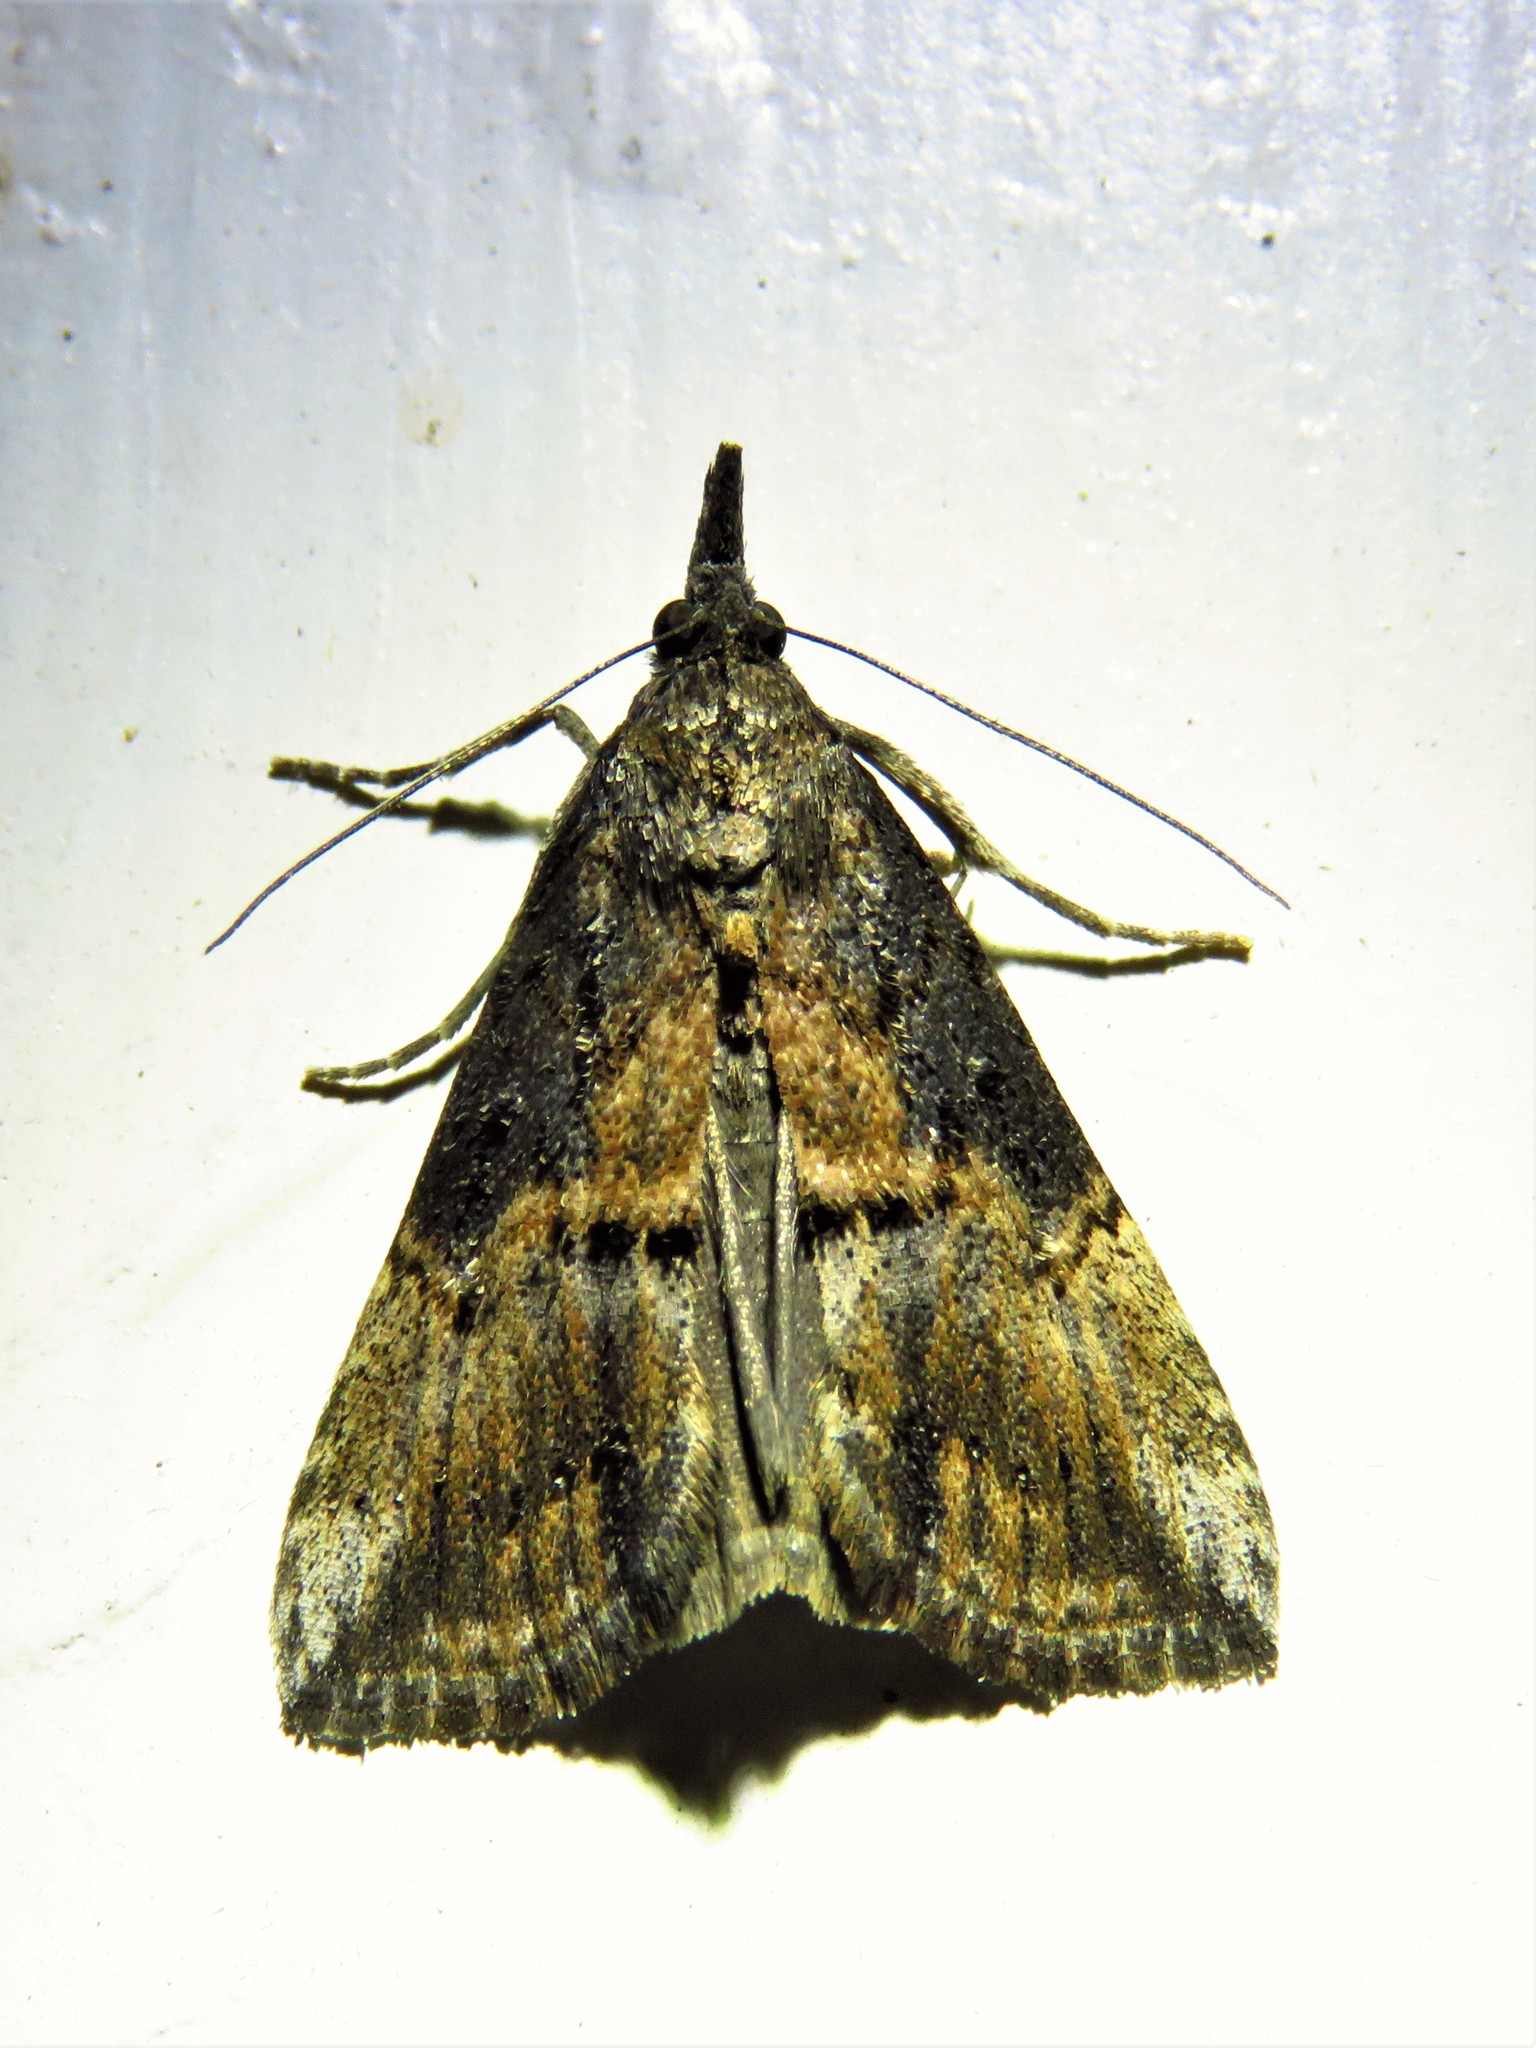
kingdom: Animalia
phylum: Arthropoda
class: Insecta
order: Lepidoptera
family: Erebidae
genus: Hypena
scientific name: Hypena scabra
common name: Green cloverworm
